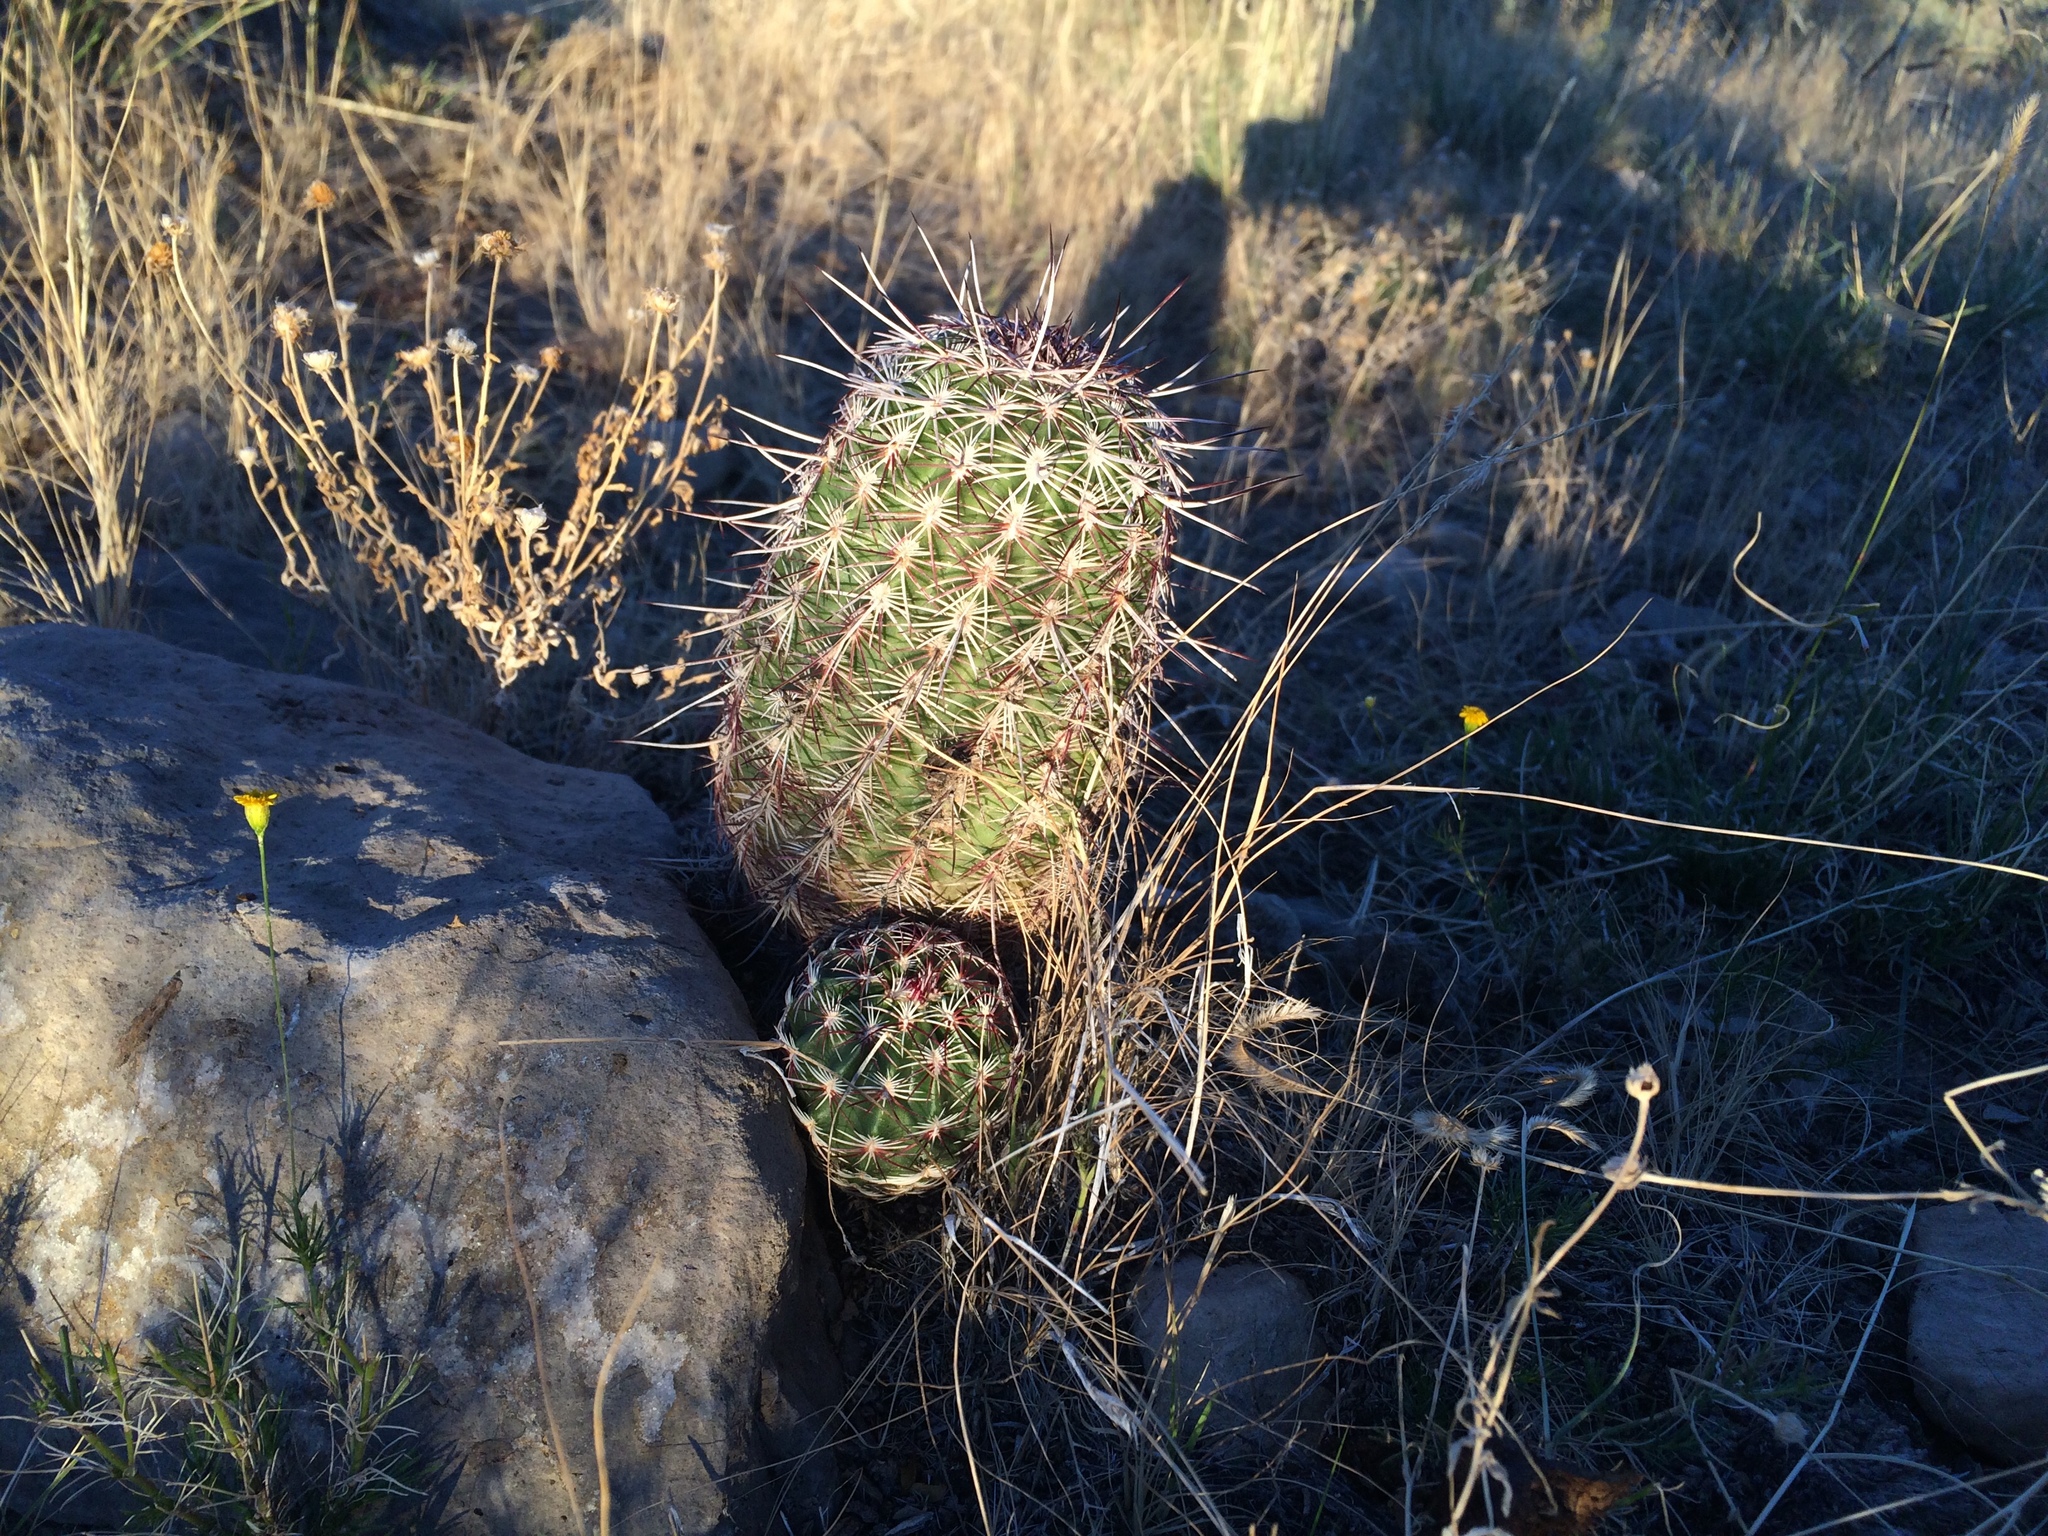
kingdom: Plantae
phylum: Tracheophyta
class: Magnoliopsida
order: Caryophyllales
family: Cactaceae
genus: Echinocereus
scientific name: Echinocereus viridiflorus
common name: Nylon hedgehog cactus
